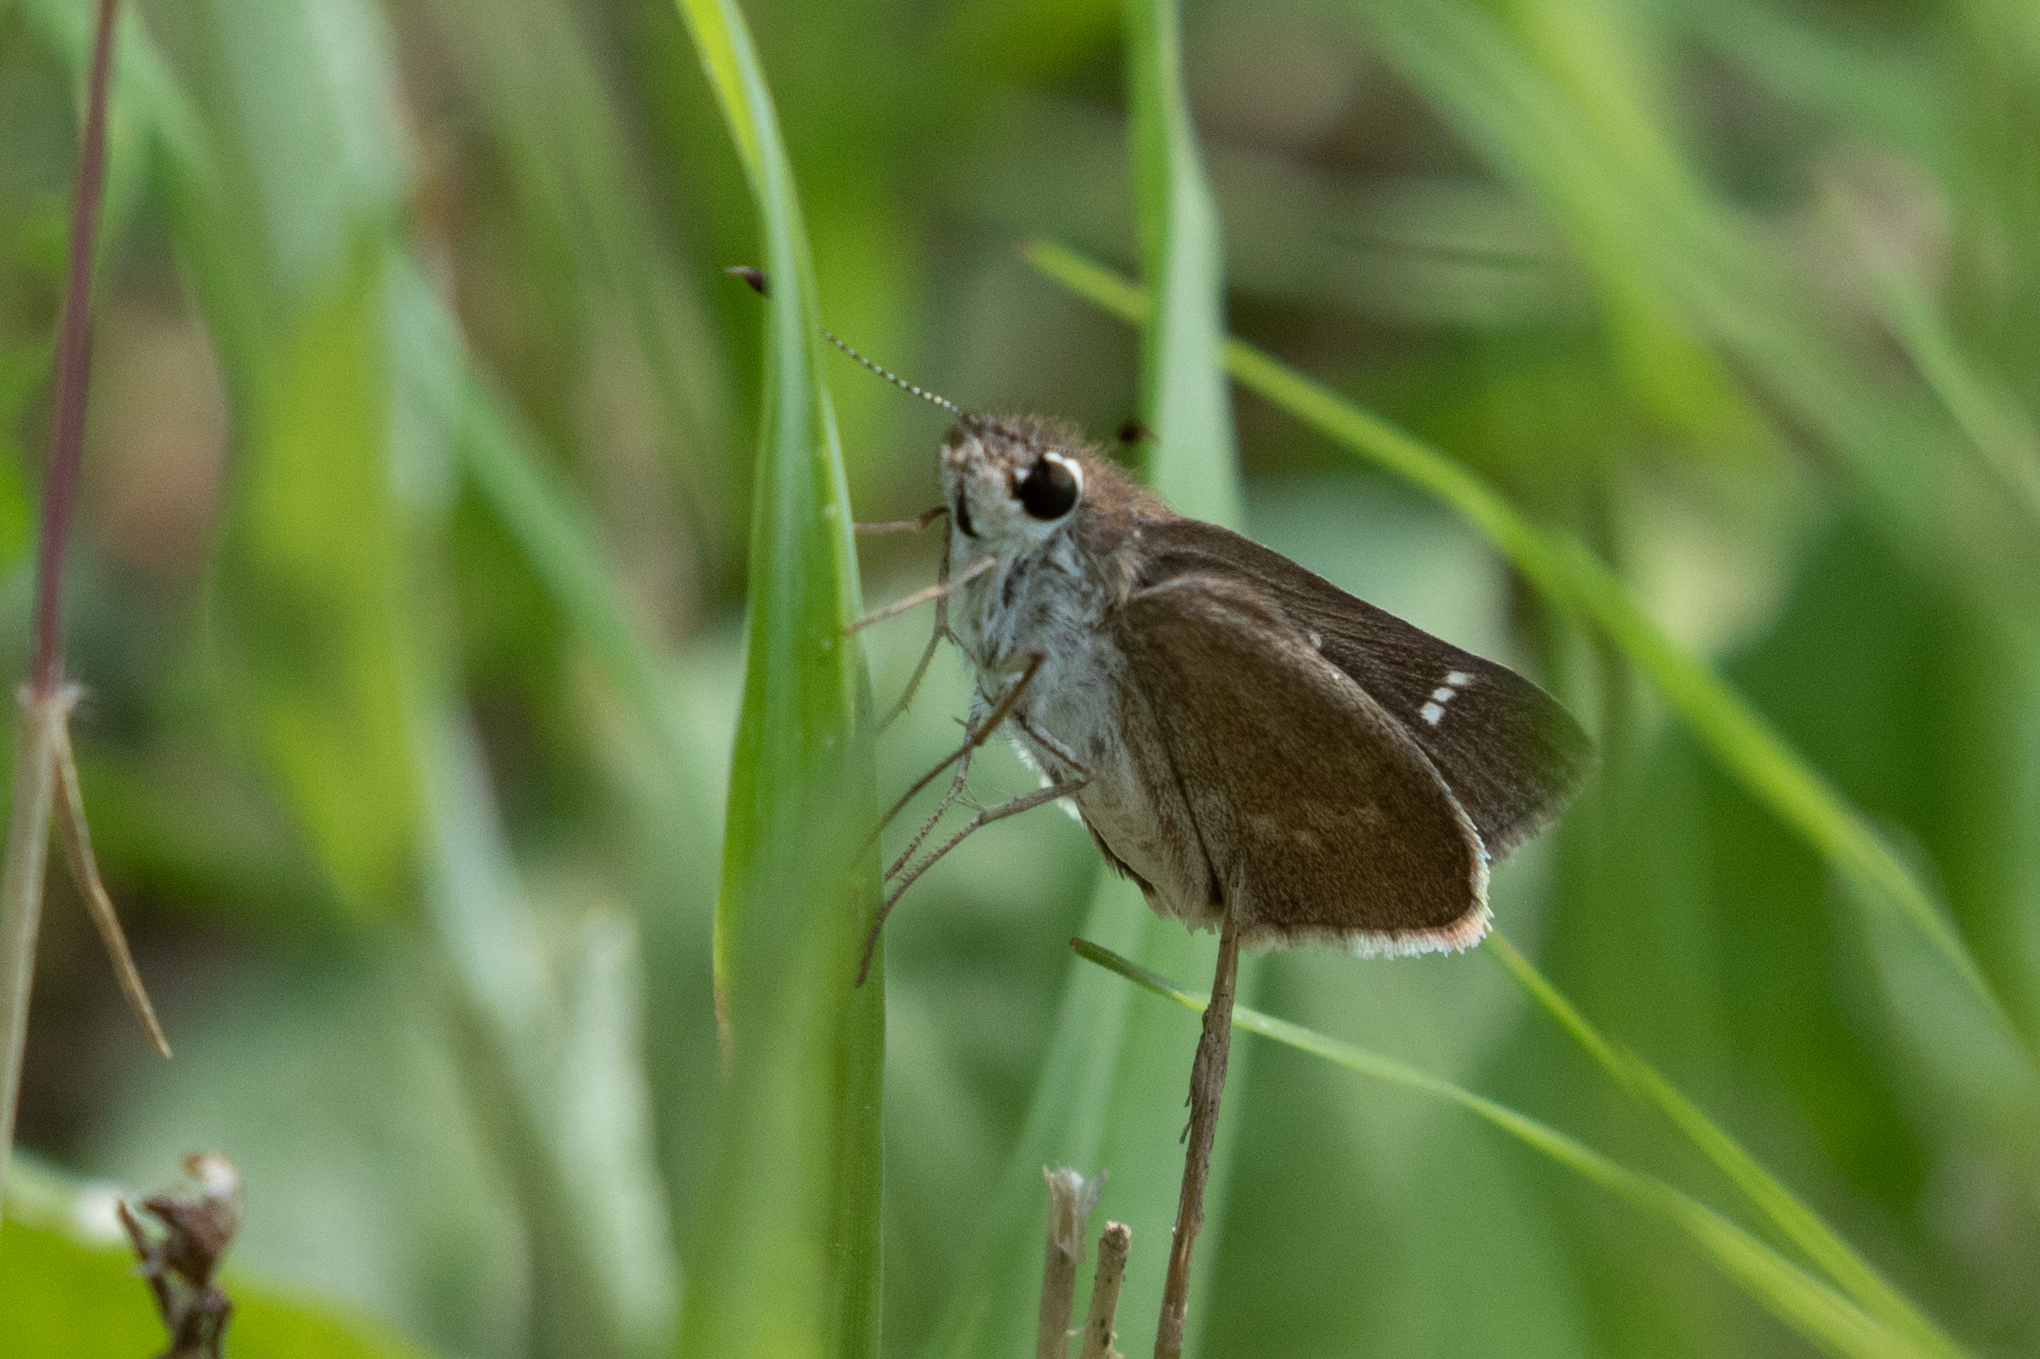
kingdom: Animalia
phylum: Arthropoda
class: Insecta
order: Lepidoptera
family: Hesperiidae
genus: Lerodea
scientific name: Lerodea eufala
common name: Eufala skipper
